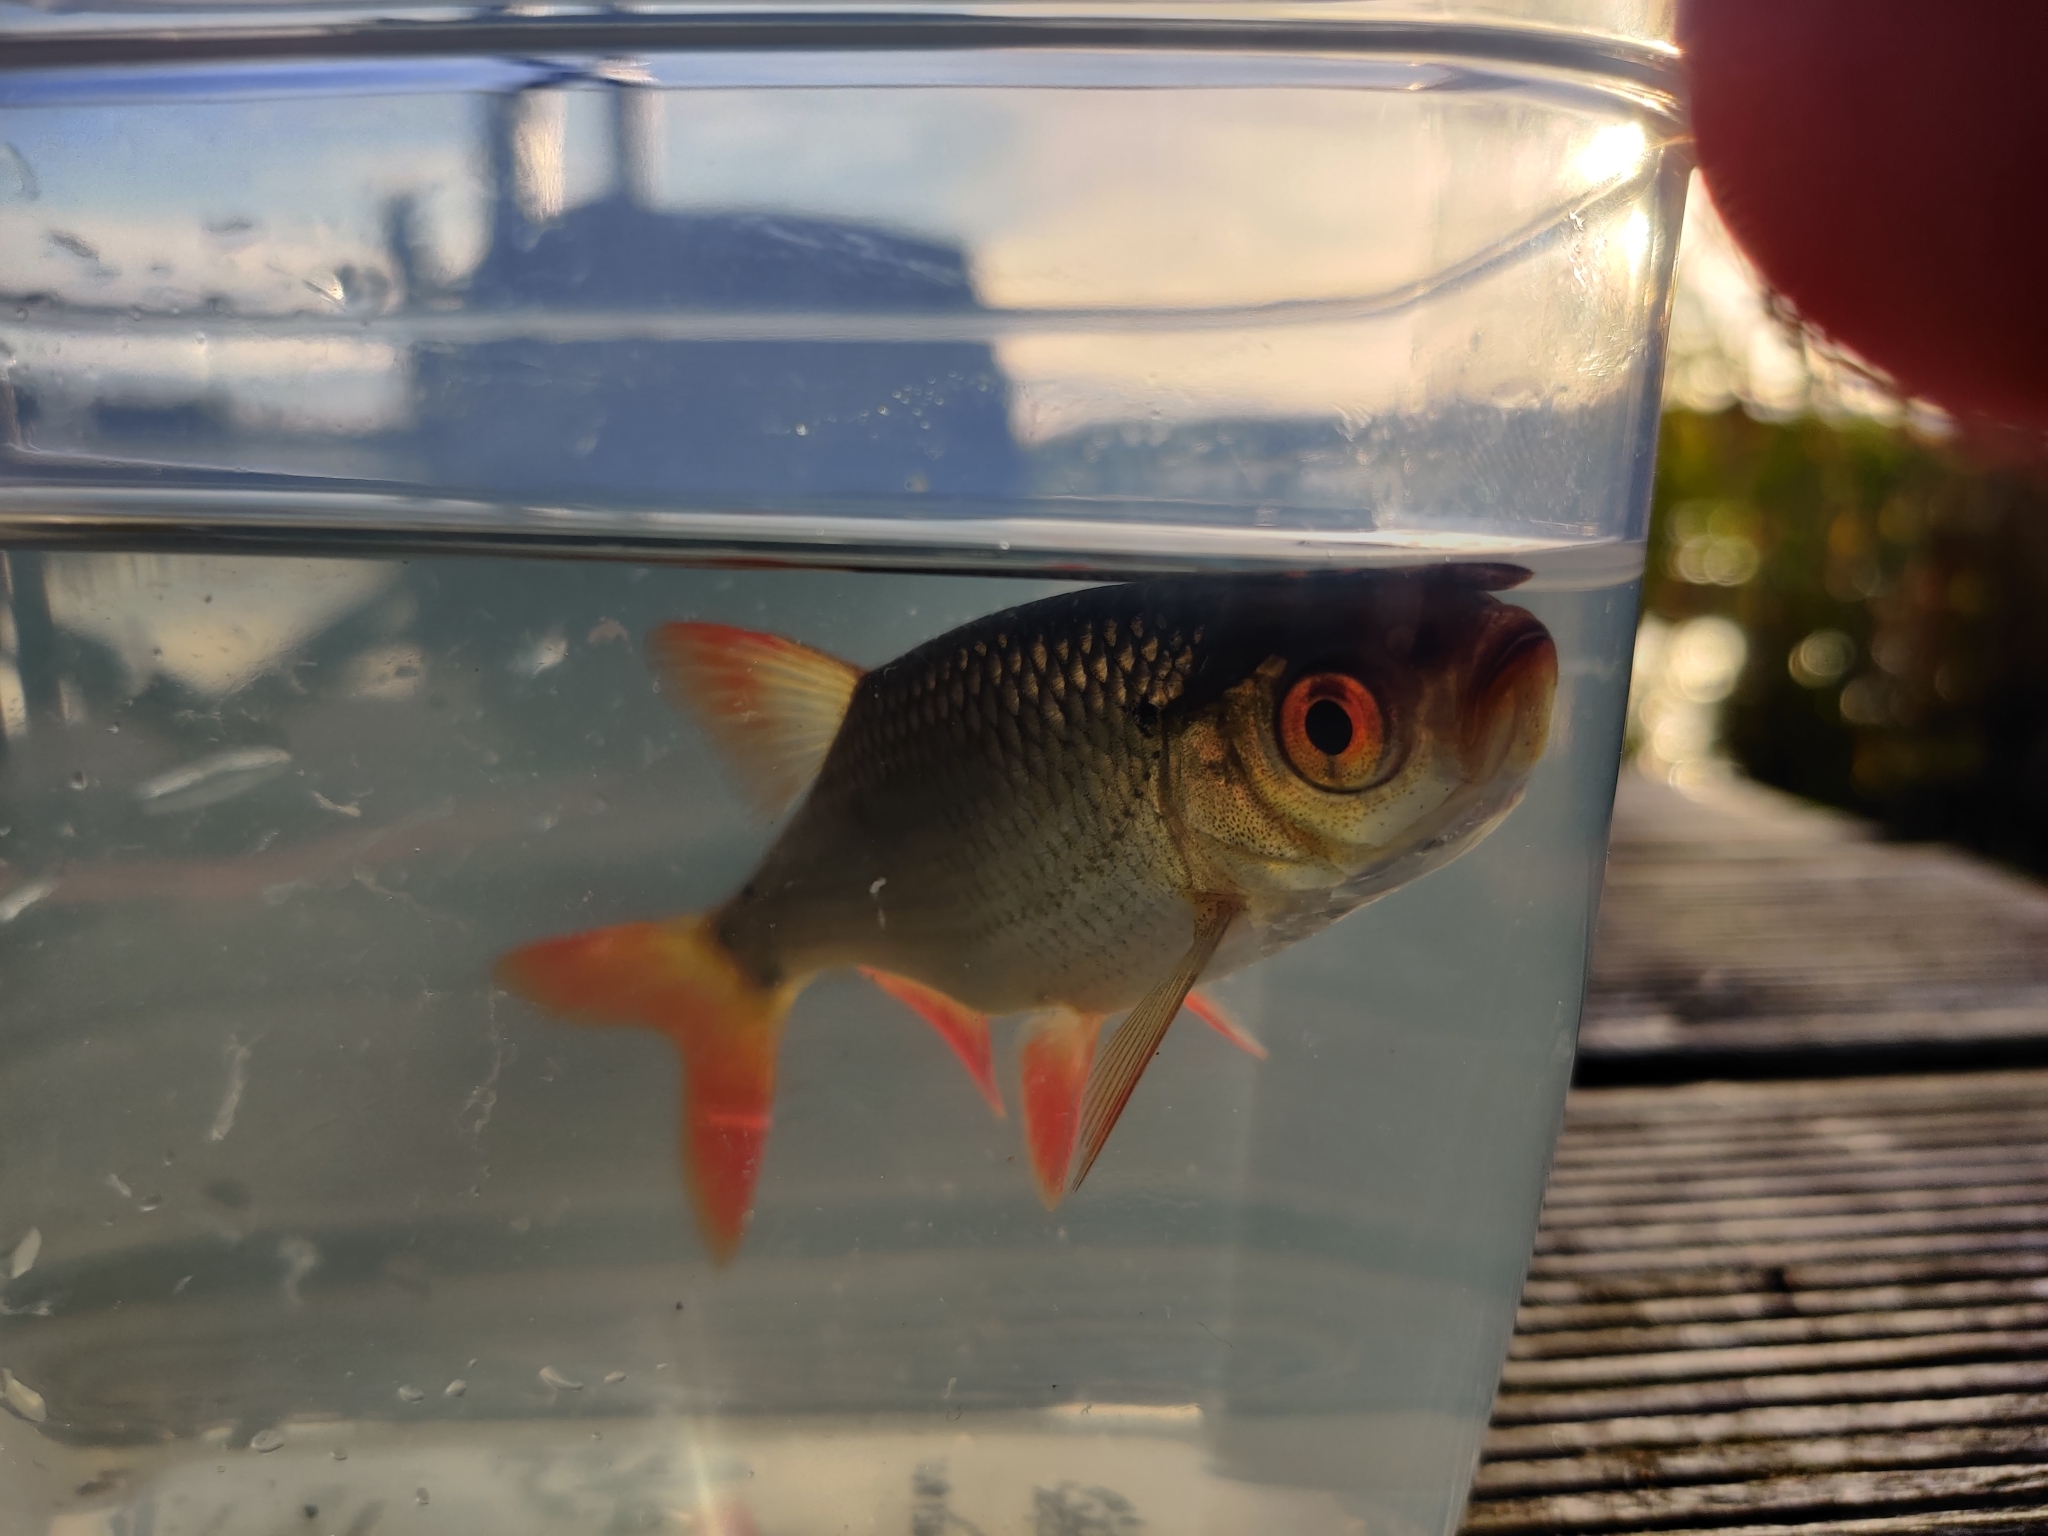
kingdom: Animalia
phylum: Chordata
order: Cypriniformes
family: Cyprinidae
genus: Scardinius
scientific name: Scardinius erythrophthalmus
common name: Rudd
